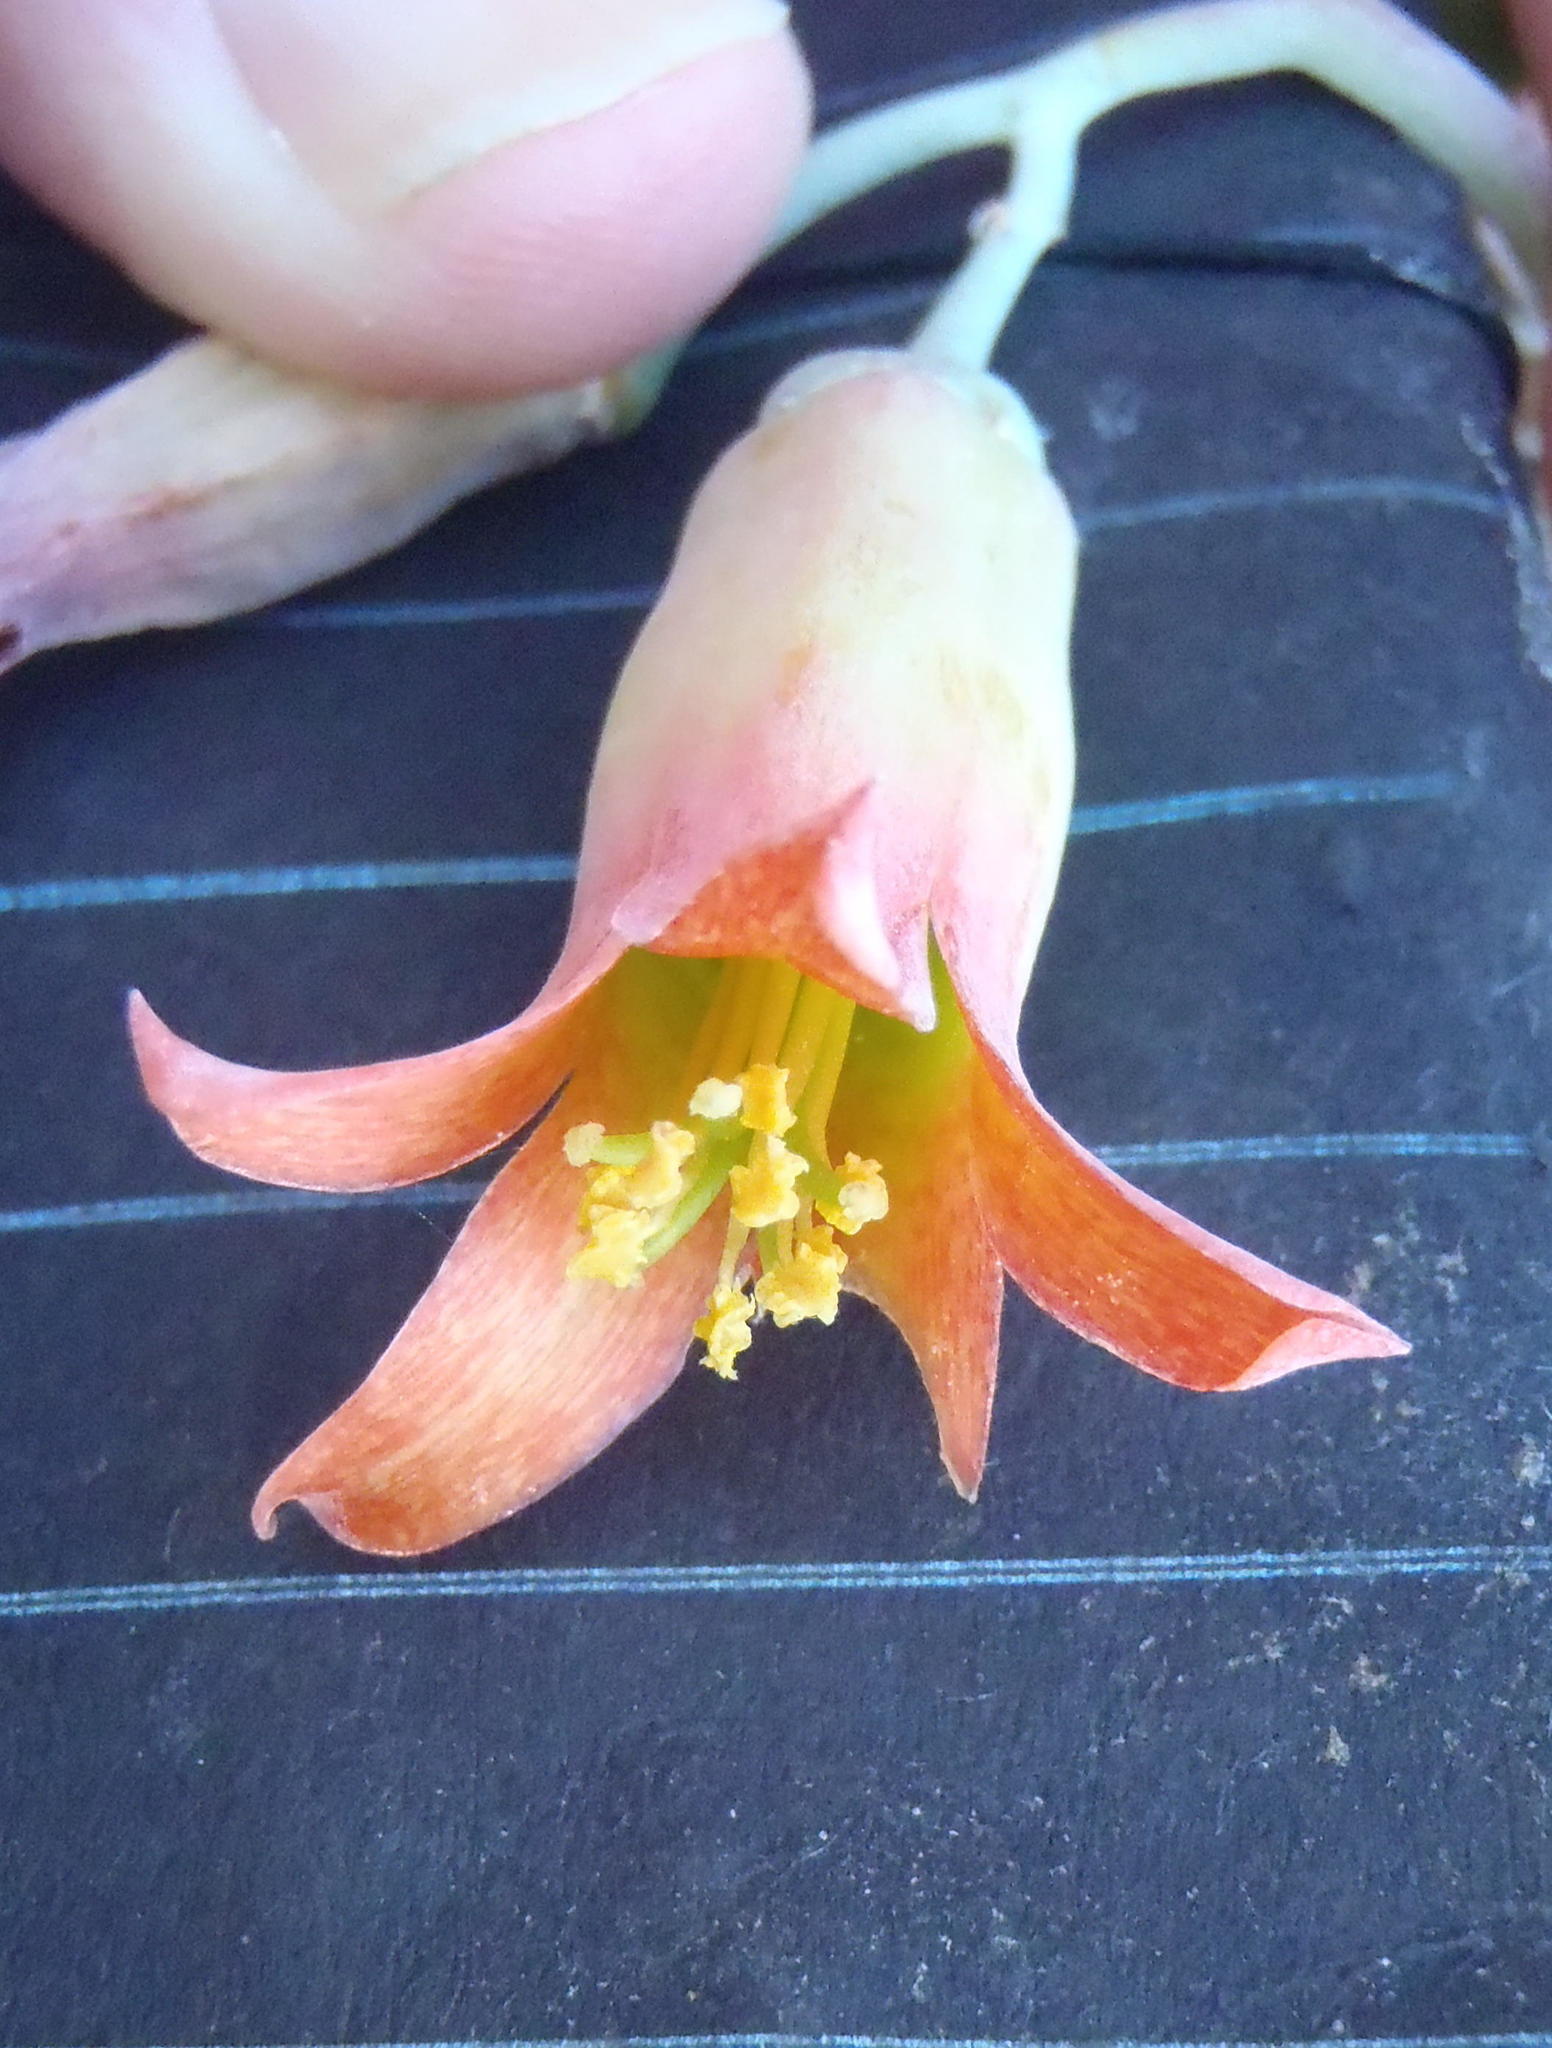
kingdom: Plantae
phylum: Tracheophyta
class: Magnoliopsida
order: Saxifragales
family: Crassulaceae
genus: Cotyledon
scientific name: Cotyledon orbiculata
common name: Pig's ear
